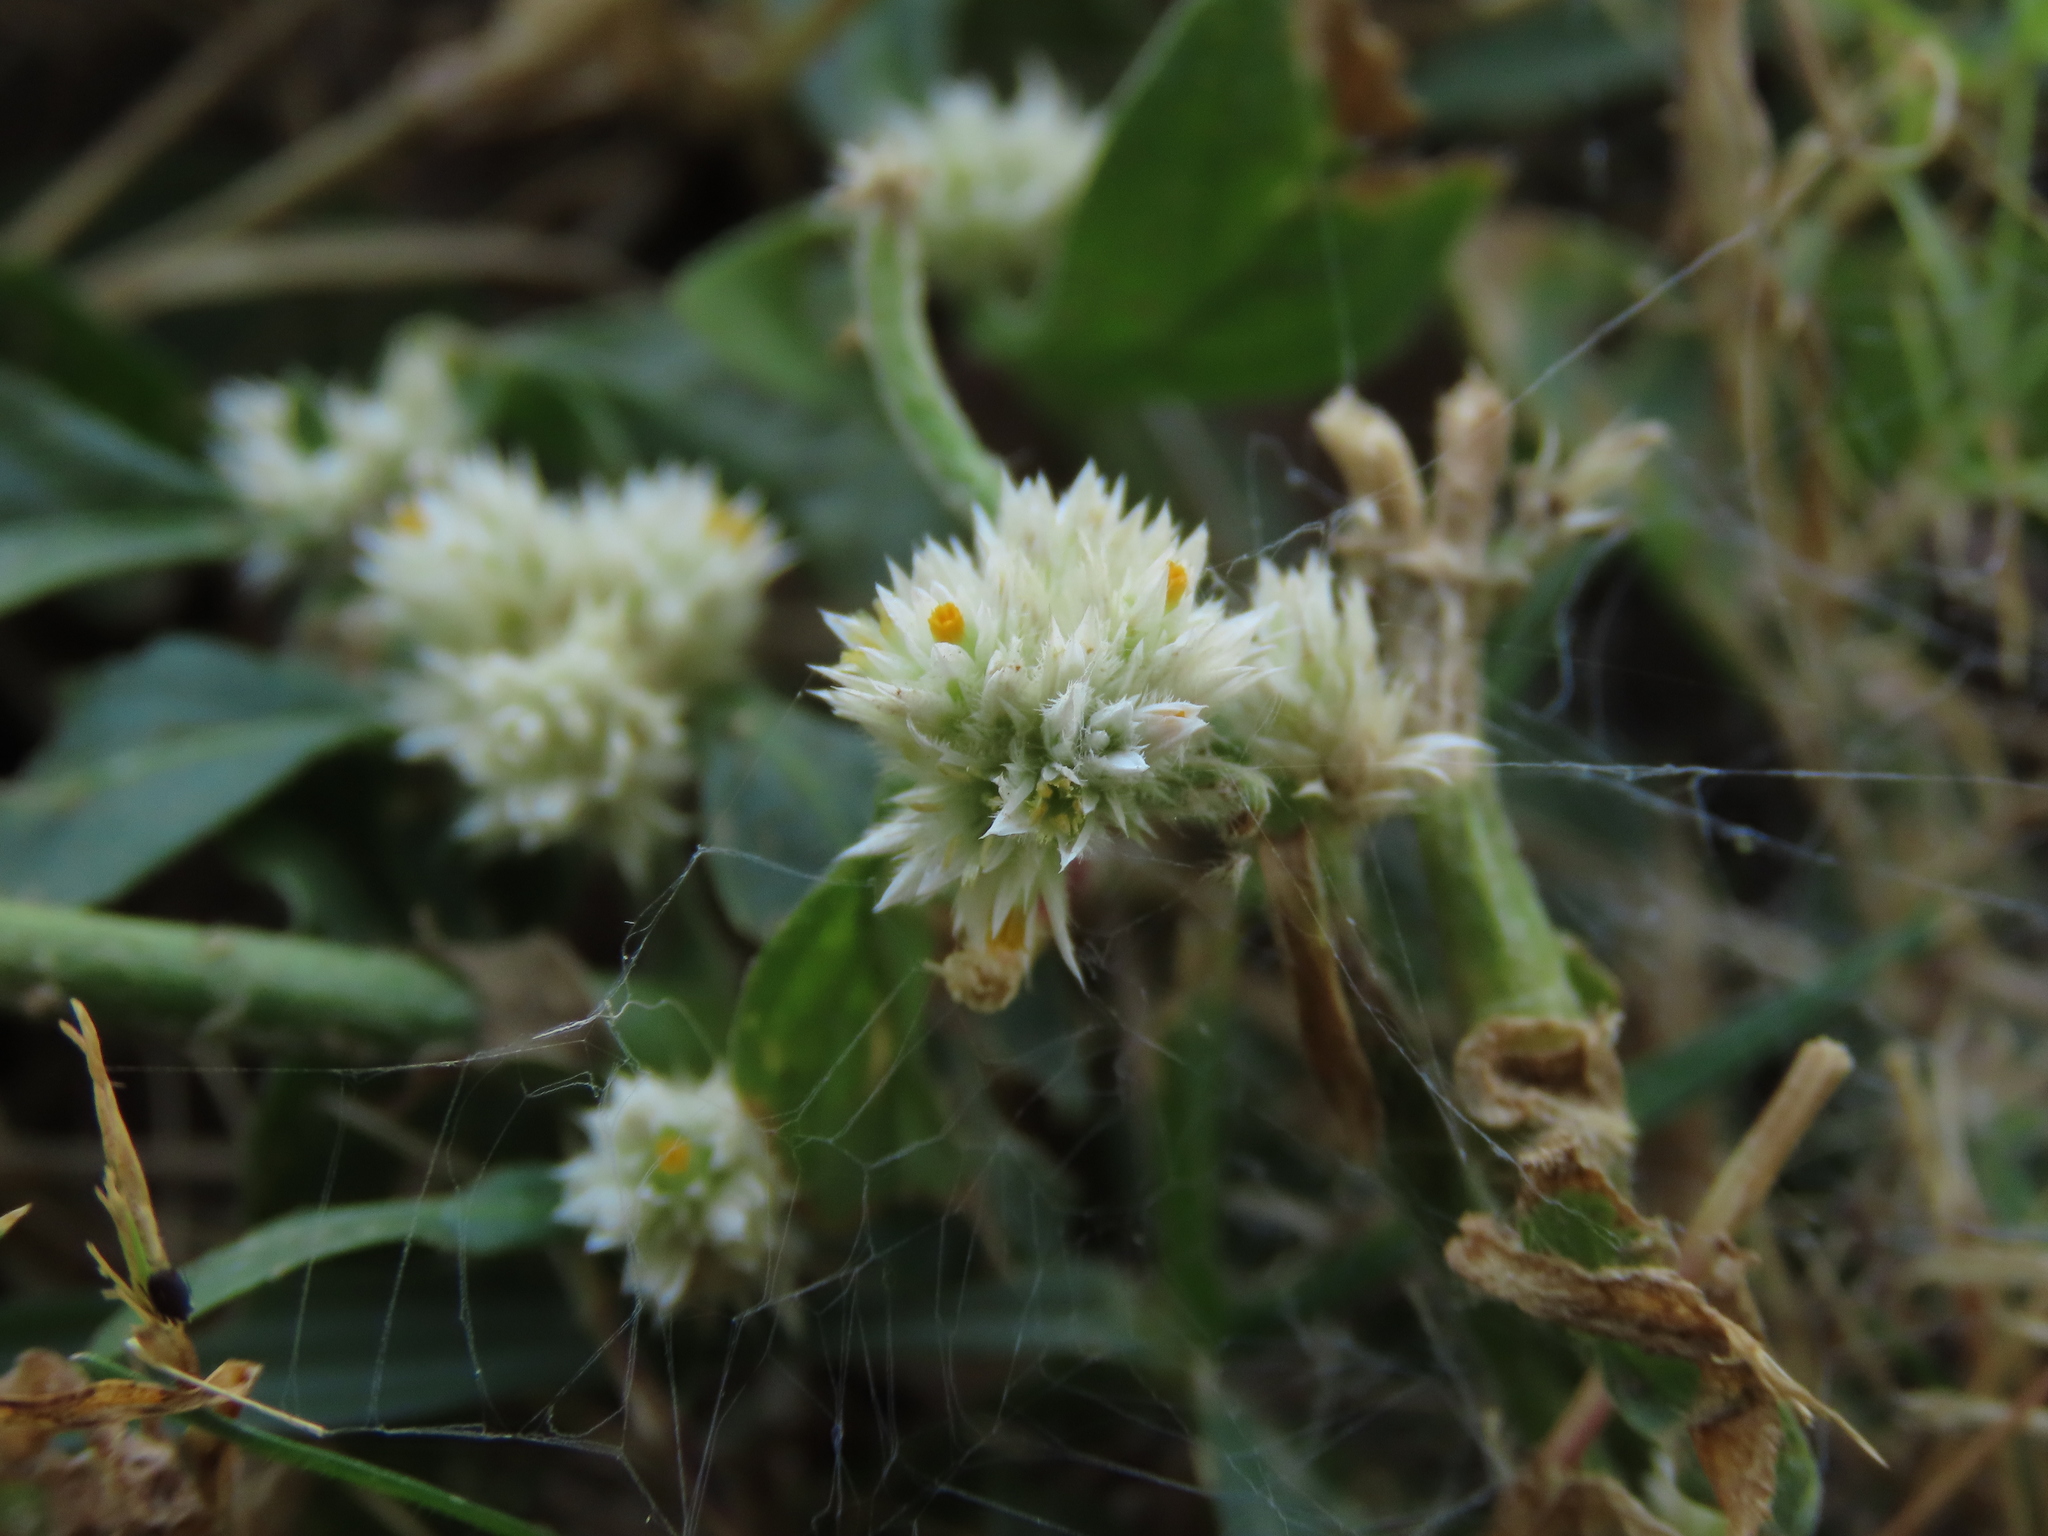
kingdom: Plantae
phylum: Tracheophyta
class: Magnoliopsida
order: Caryophyllales
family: Amaranthaceae
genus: Alternanthera
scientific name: Alternanthera bettzickiana
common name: Calico-plant
